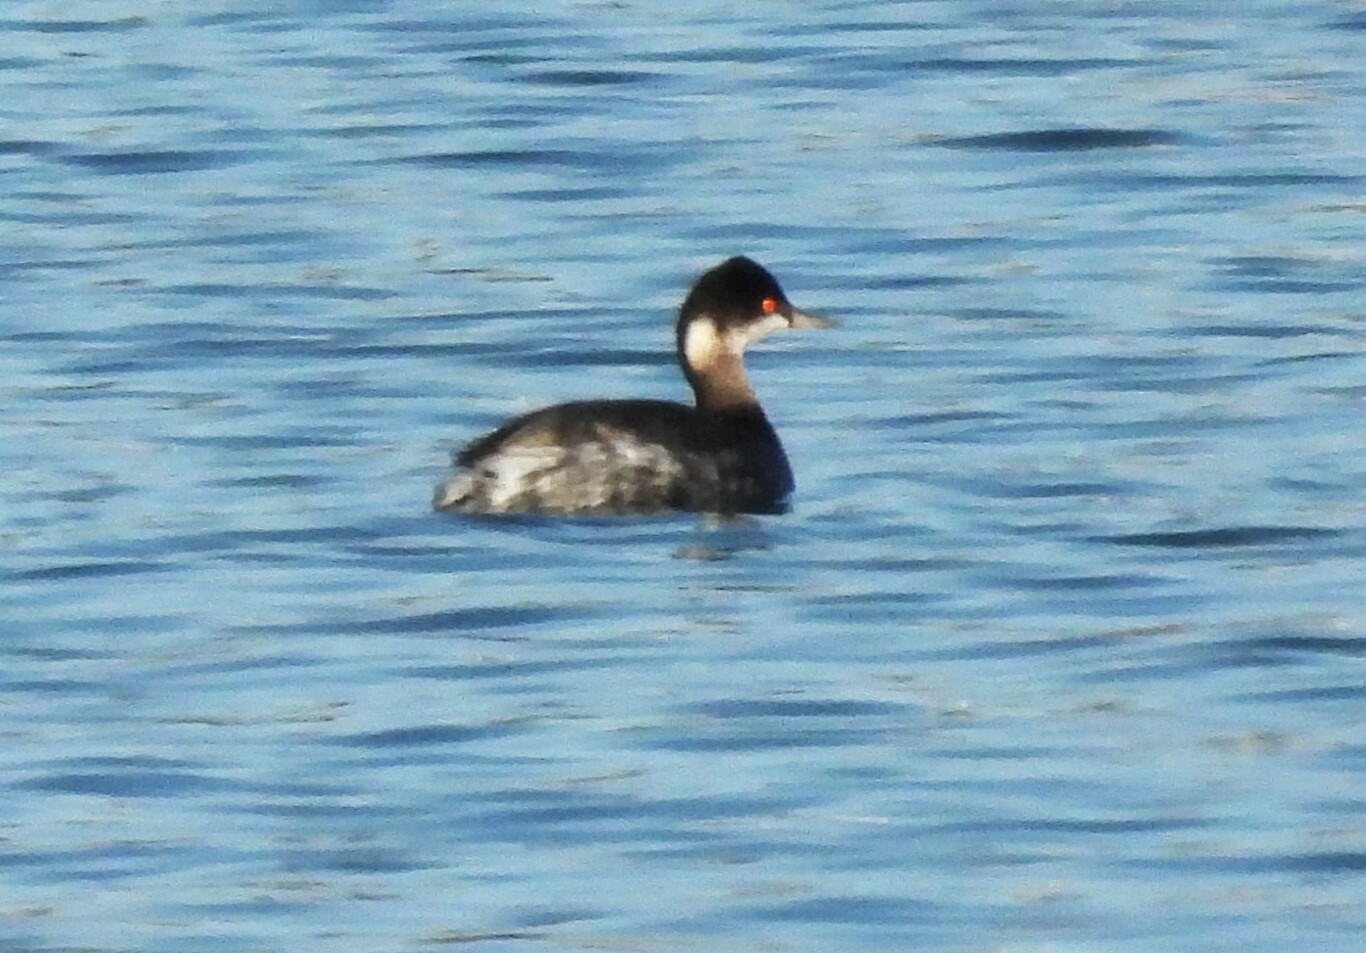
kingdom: Animalia
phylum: Chordata
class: Aves
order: Podicipediformes
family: Podicipedidae
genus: Podiceps
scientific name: Podiceps nigricollis
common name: Black-necked grebe
